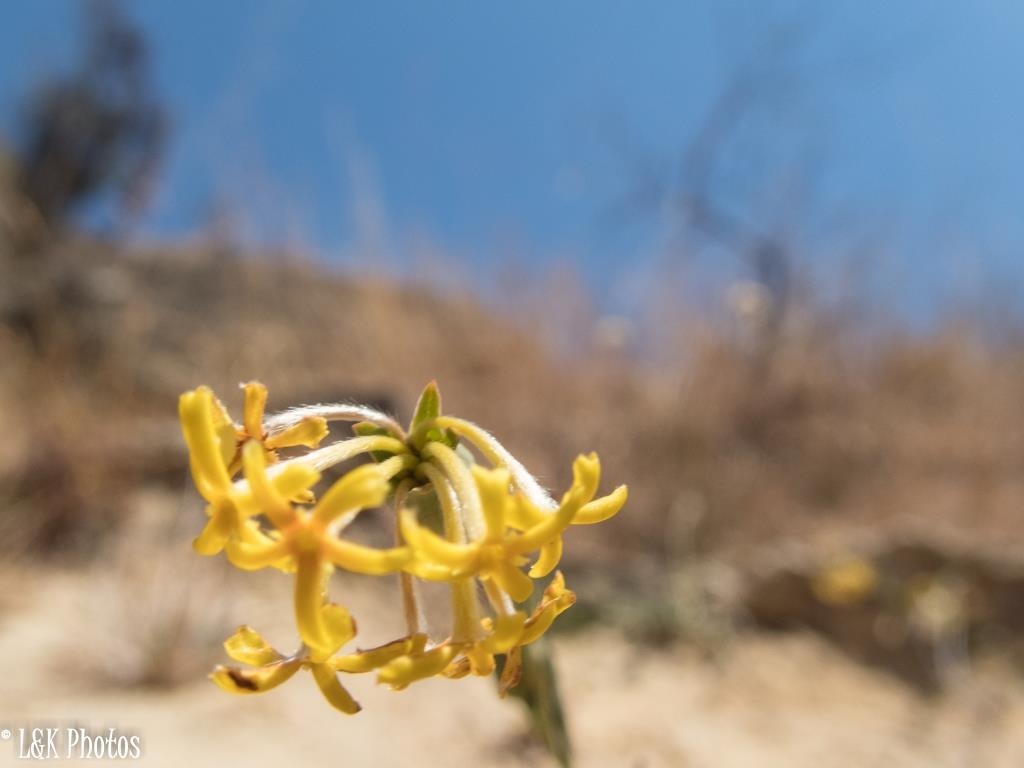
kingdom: Plantae
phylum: Tracheophyta
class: Magnoliopsida
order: Malvales
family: Thymelaeaceae
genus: Gnidia
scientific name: Gnidia linearis
